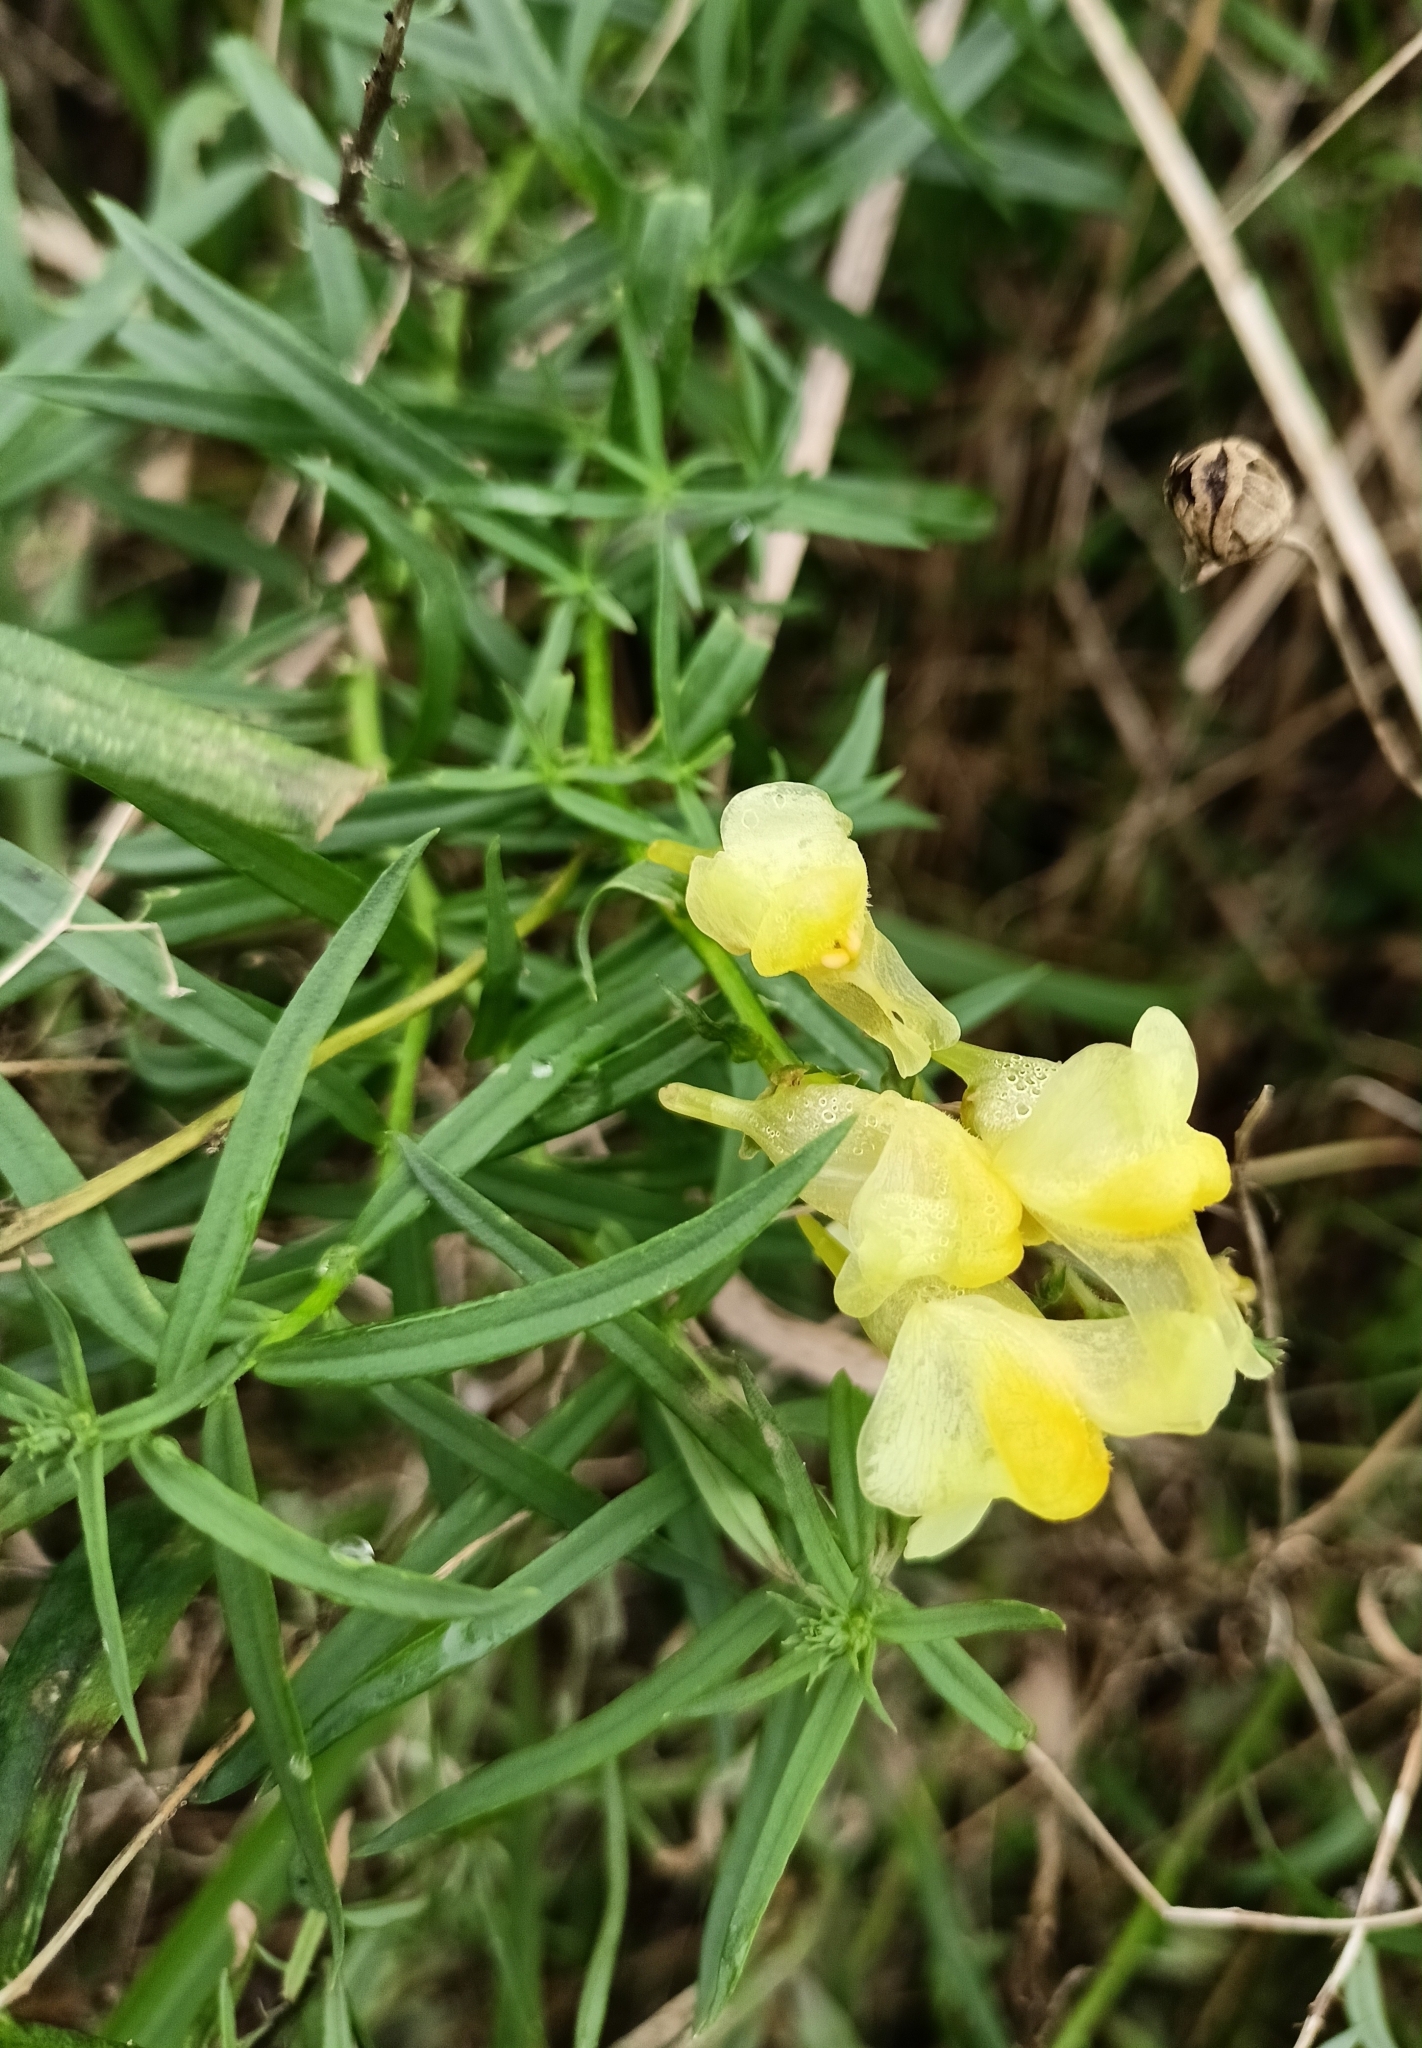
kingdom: Plantae
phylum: Tracheophyta
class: Magnoliopsida
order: Lamiales
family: Plantaginaceae
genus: Linaria
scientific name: Linaria vulgaris
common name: Butter and eggs
